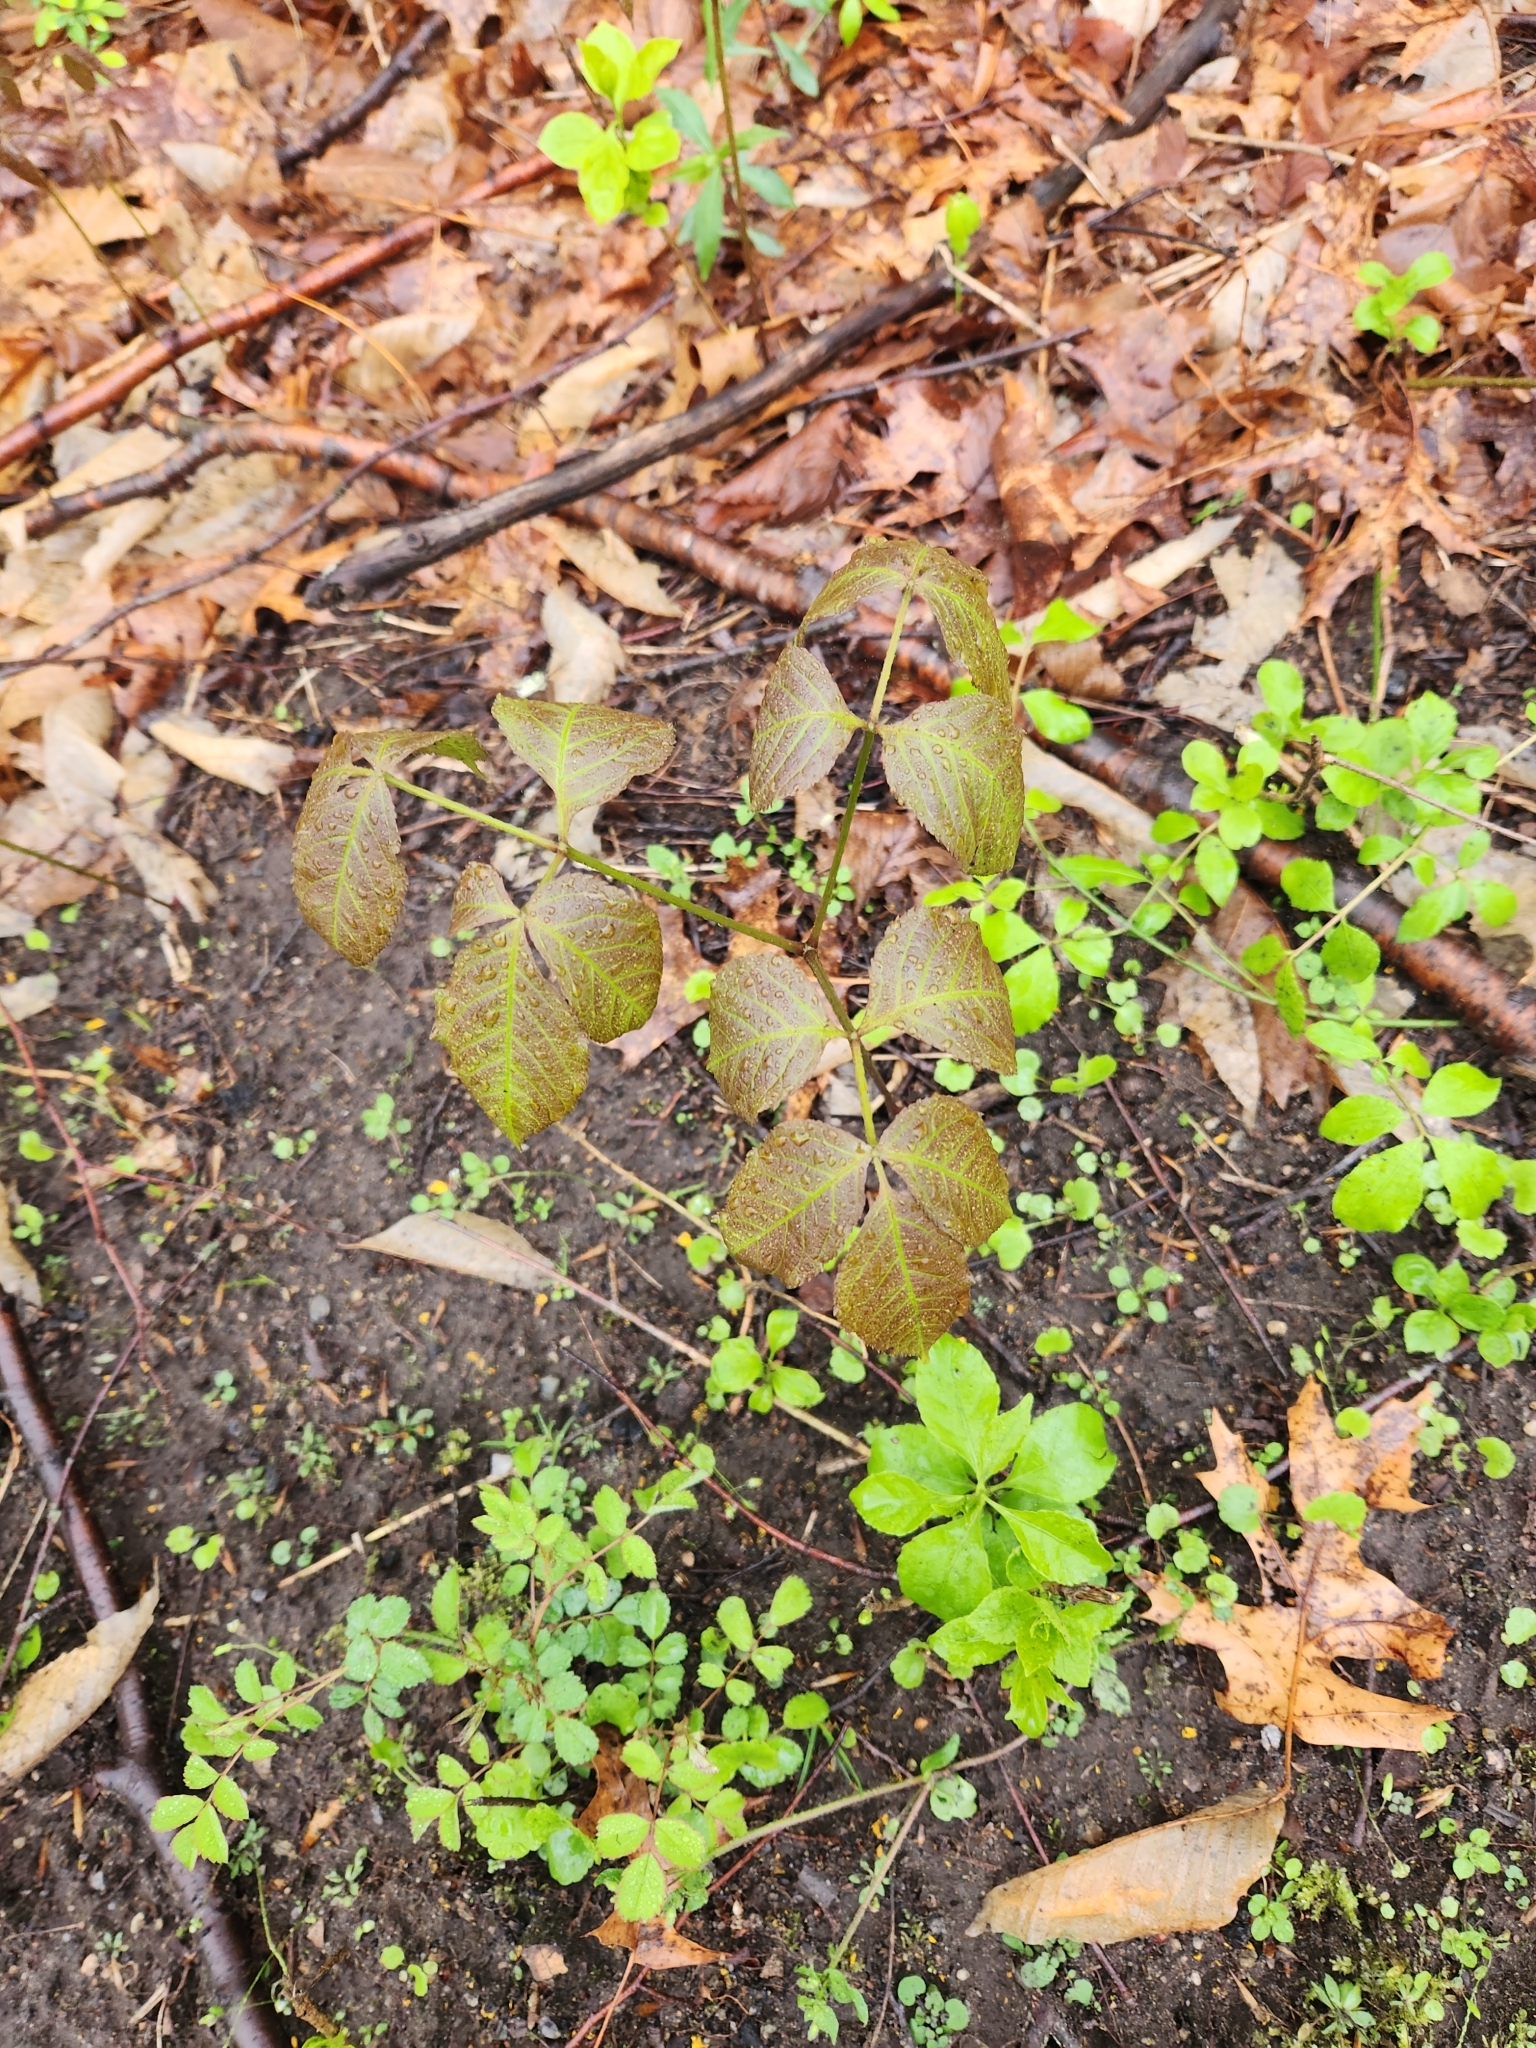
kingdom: Plantae
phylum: Tracheophyta
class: Magnoliopsida
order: Apiales
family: Araliaceae
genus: Aralia
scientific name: Aralia nudicaulis
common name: Wild sarsaparilla
